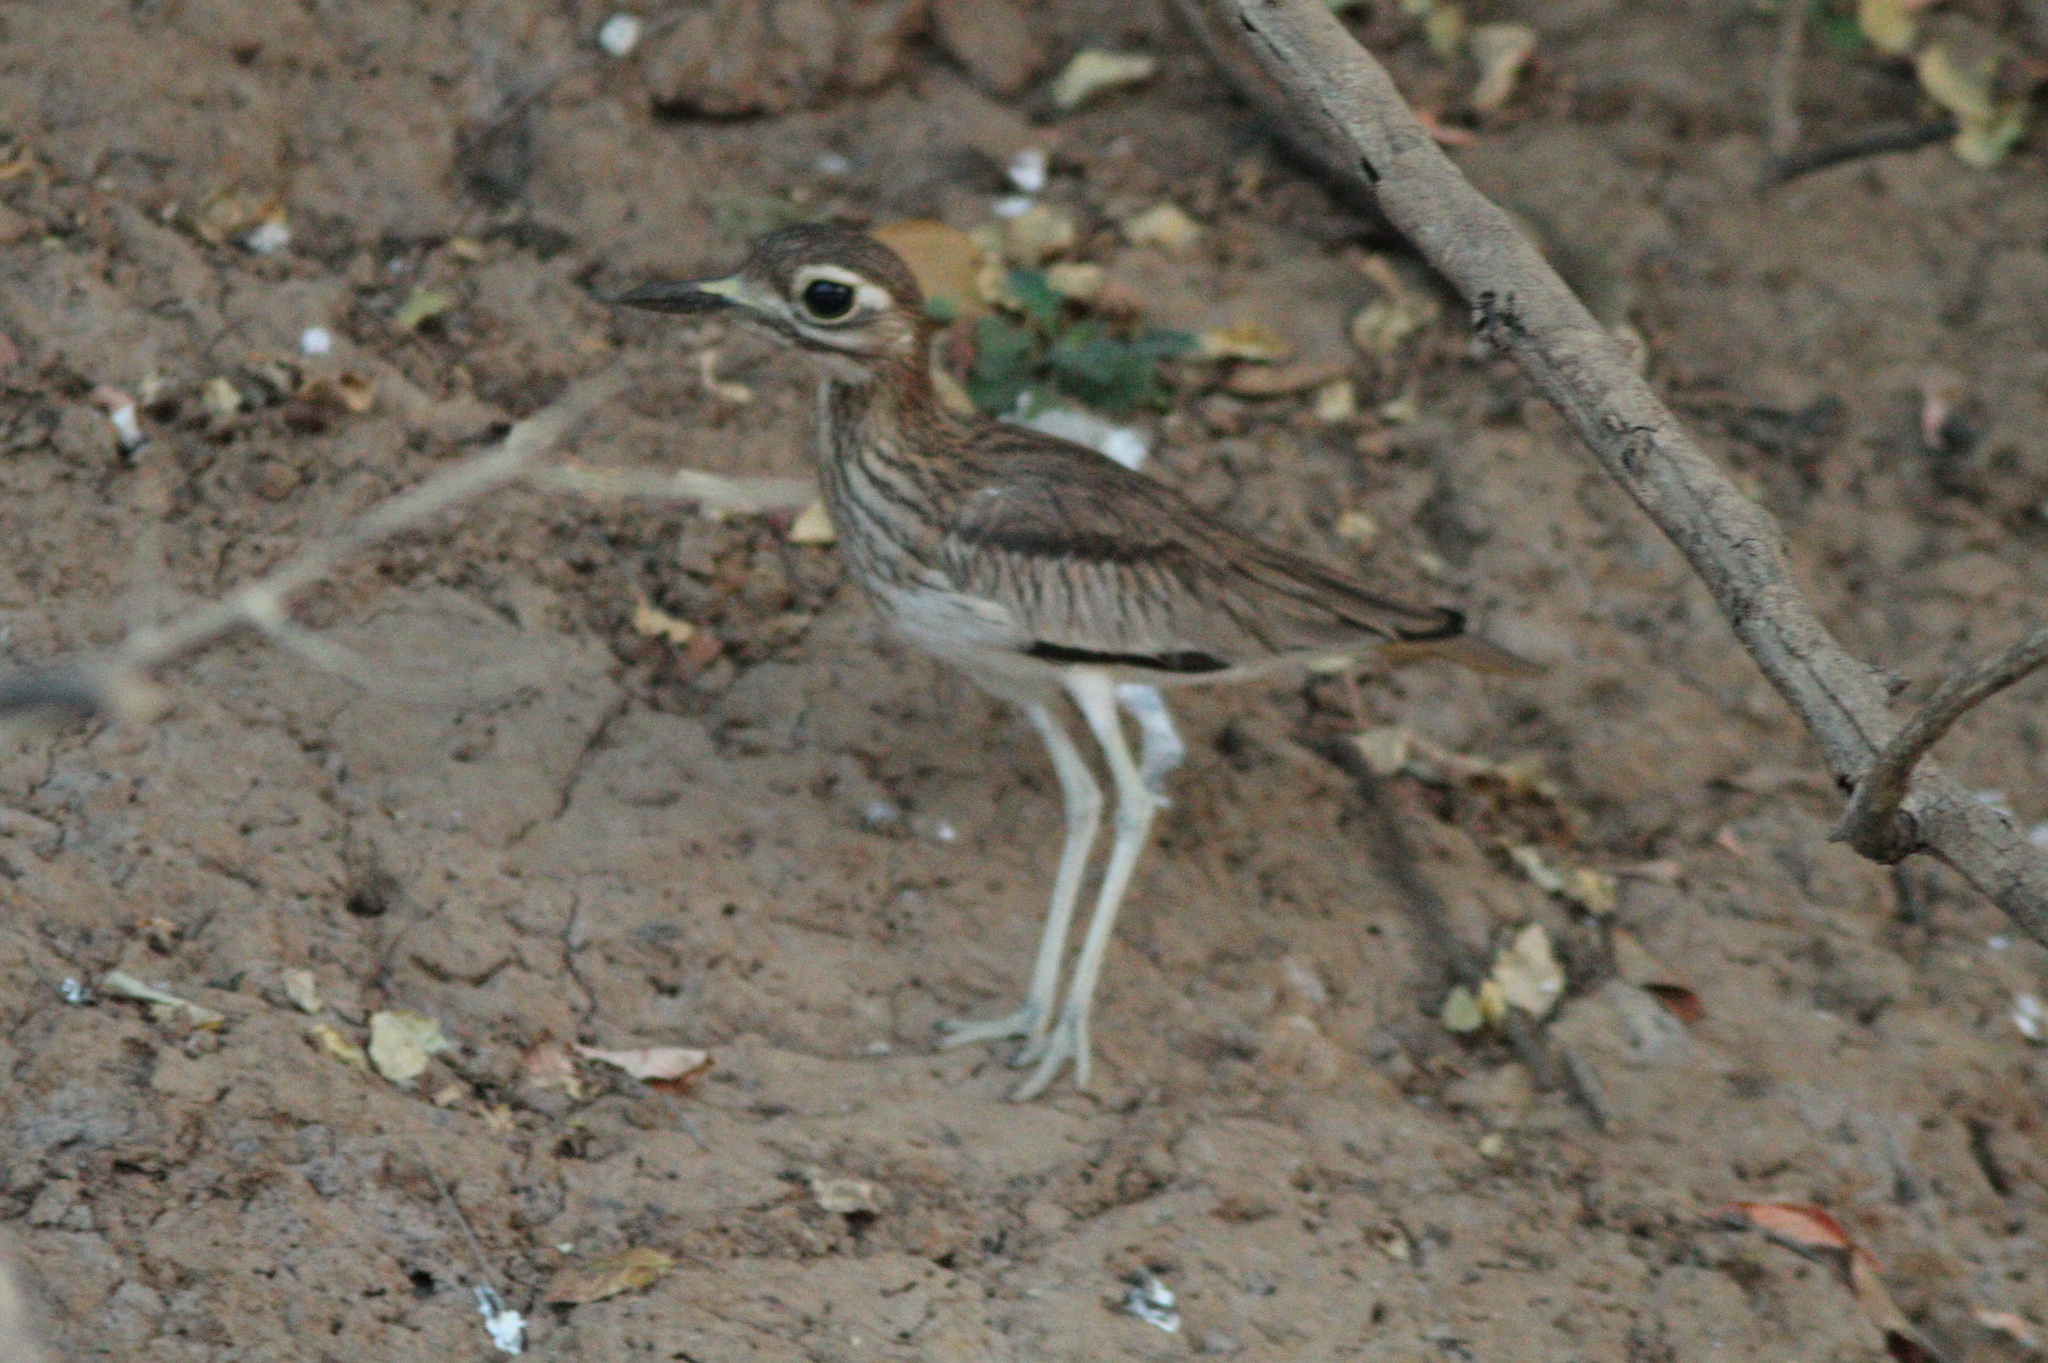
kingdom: Animalia
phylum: Chordata
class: Aves
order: Charadriiformes
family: Burhinidae
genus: Burhinus
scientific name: Burhinus senegalensis
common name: Senegal thick-knee
